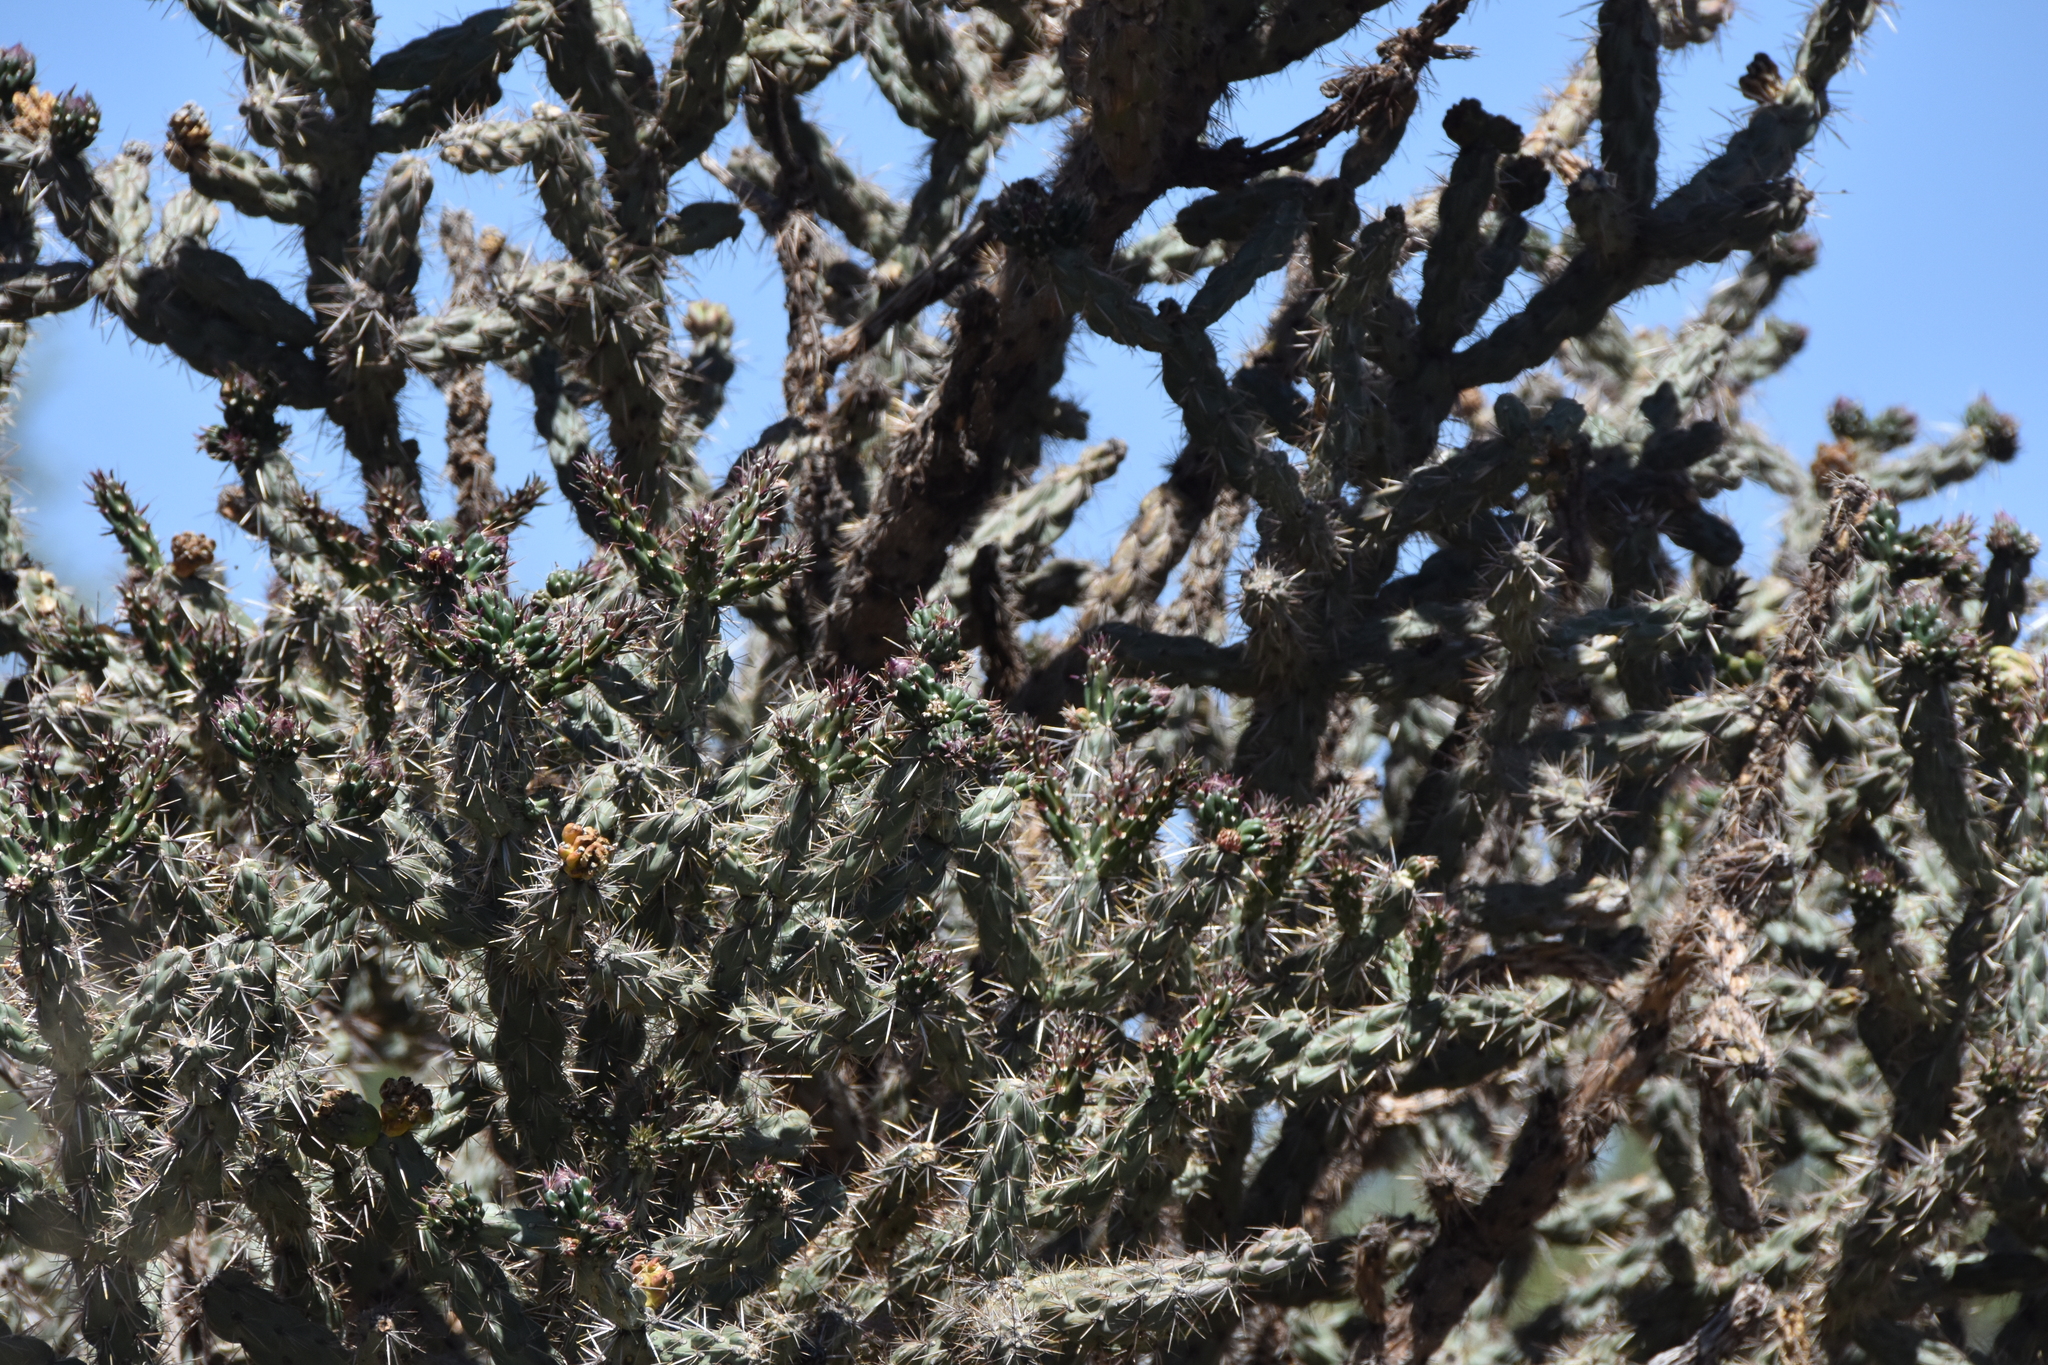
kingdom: Plantae
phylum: Tracheophyta
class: Magnoliopsida
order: Caryophyllales
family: Cactaceae
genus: Cylindropuntia
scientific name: Cylindropuntia imbricata
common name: Candelabrum cactus
